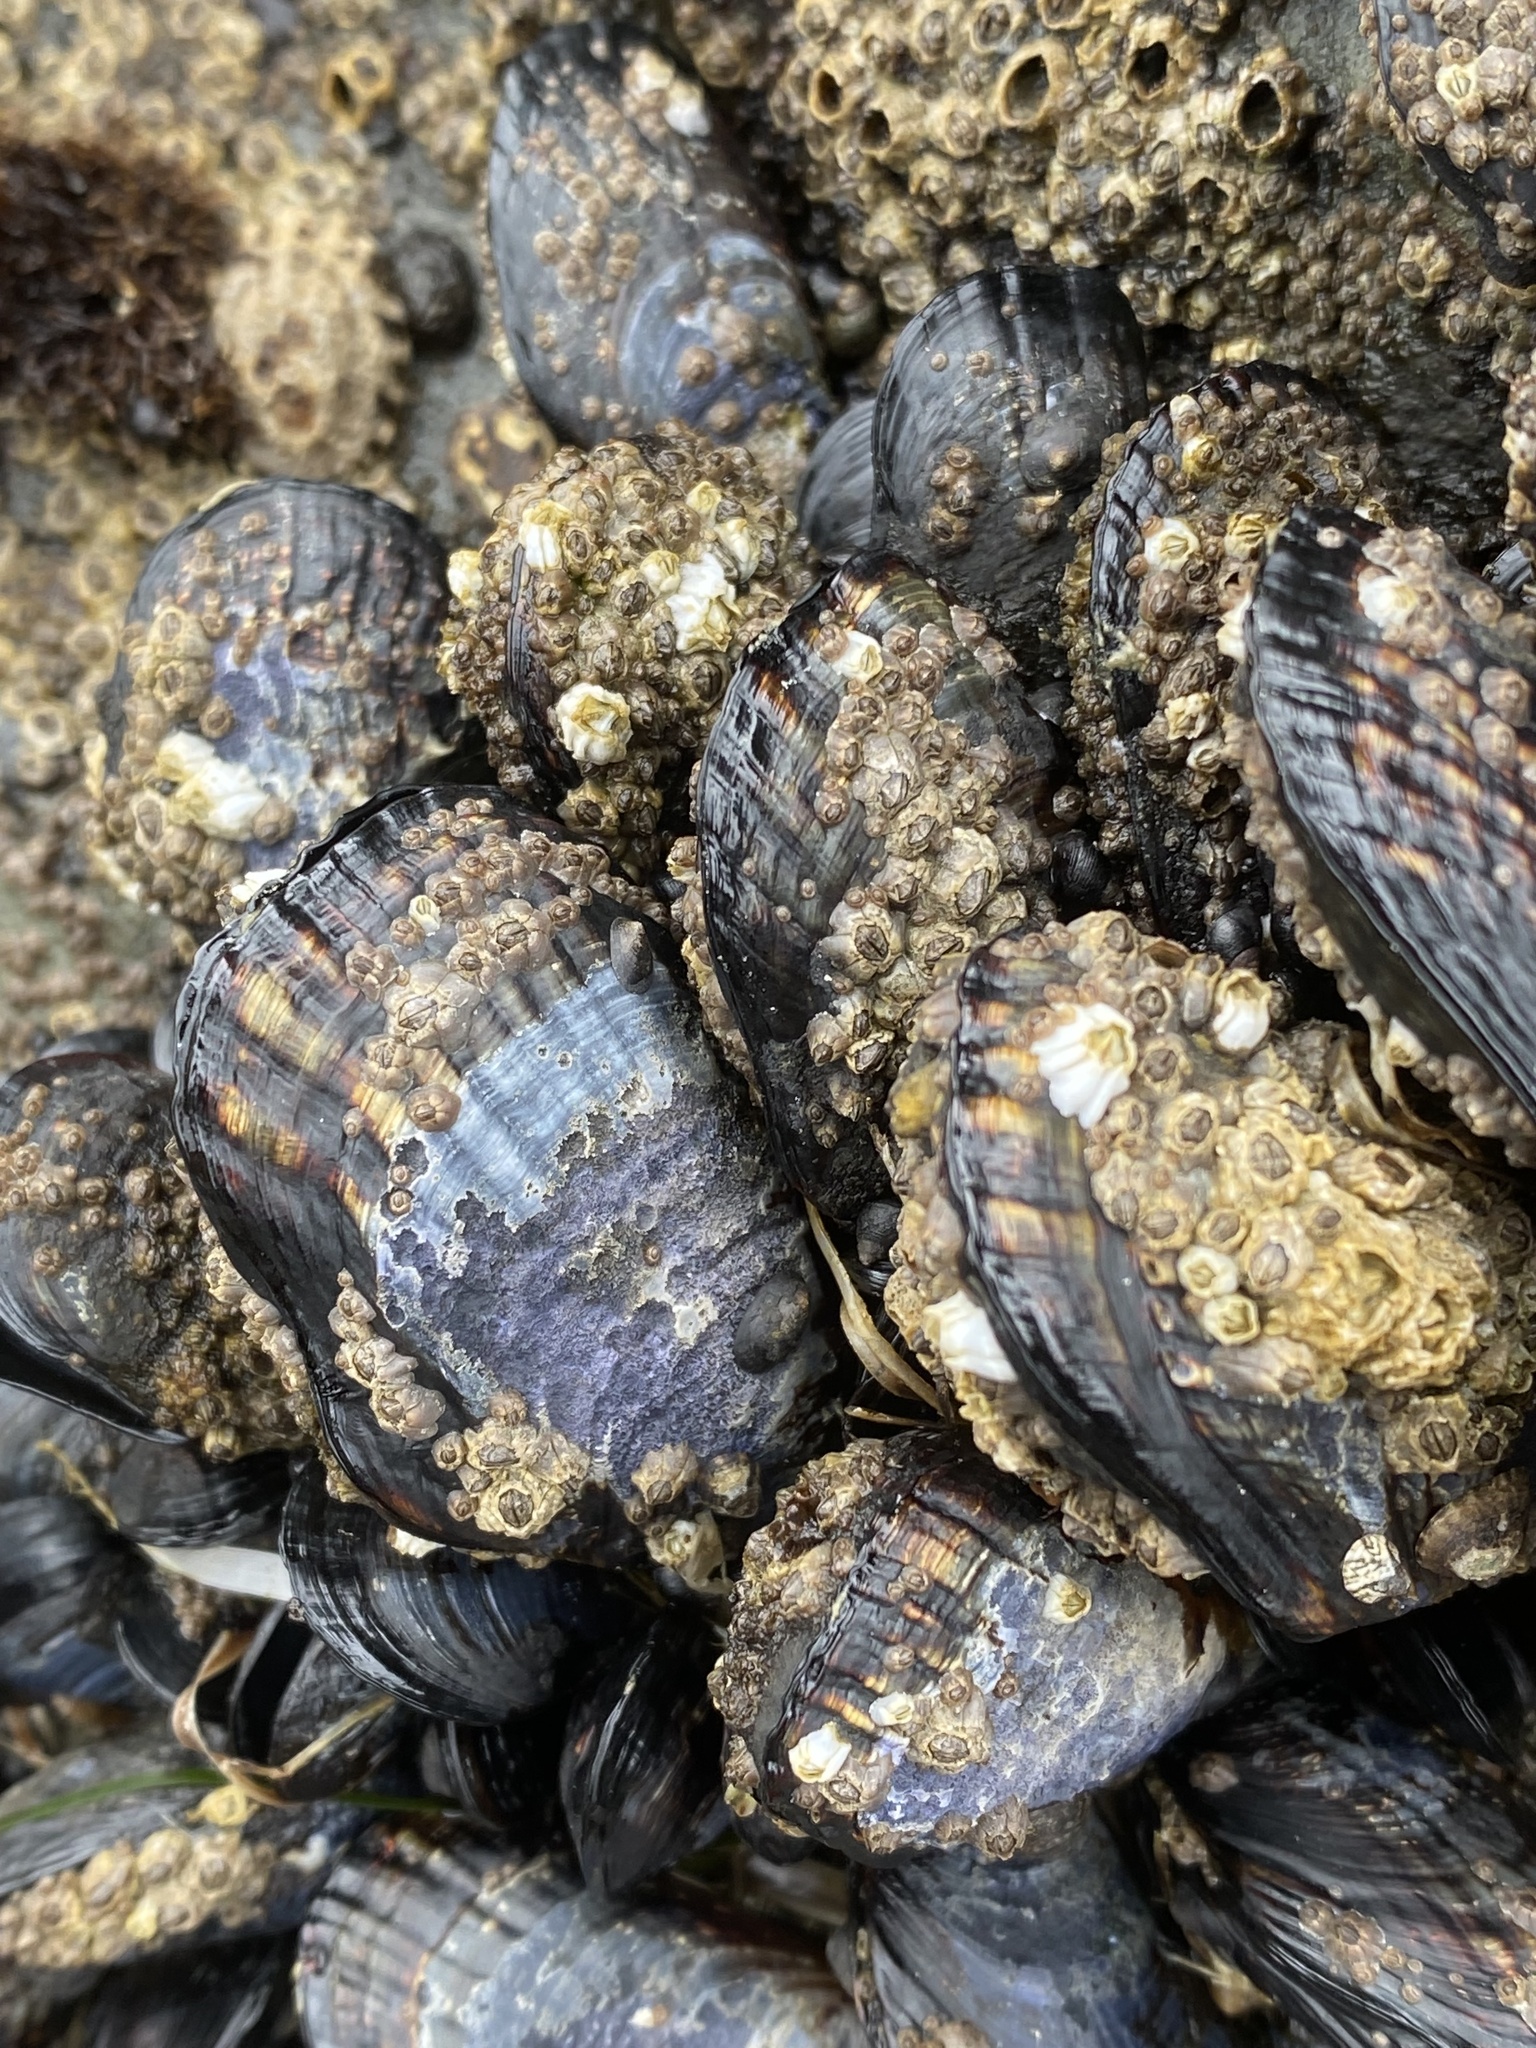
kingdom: Animalia
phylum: Mollusca
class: Bivalvia
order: Mytilida
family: Mytilidae
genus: Mytilus
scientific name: Mytilus californianus
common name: California mussel
